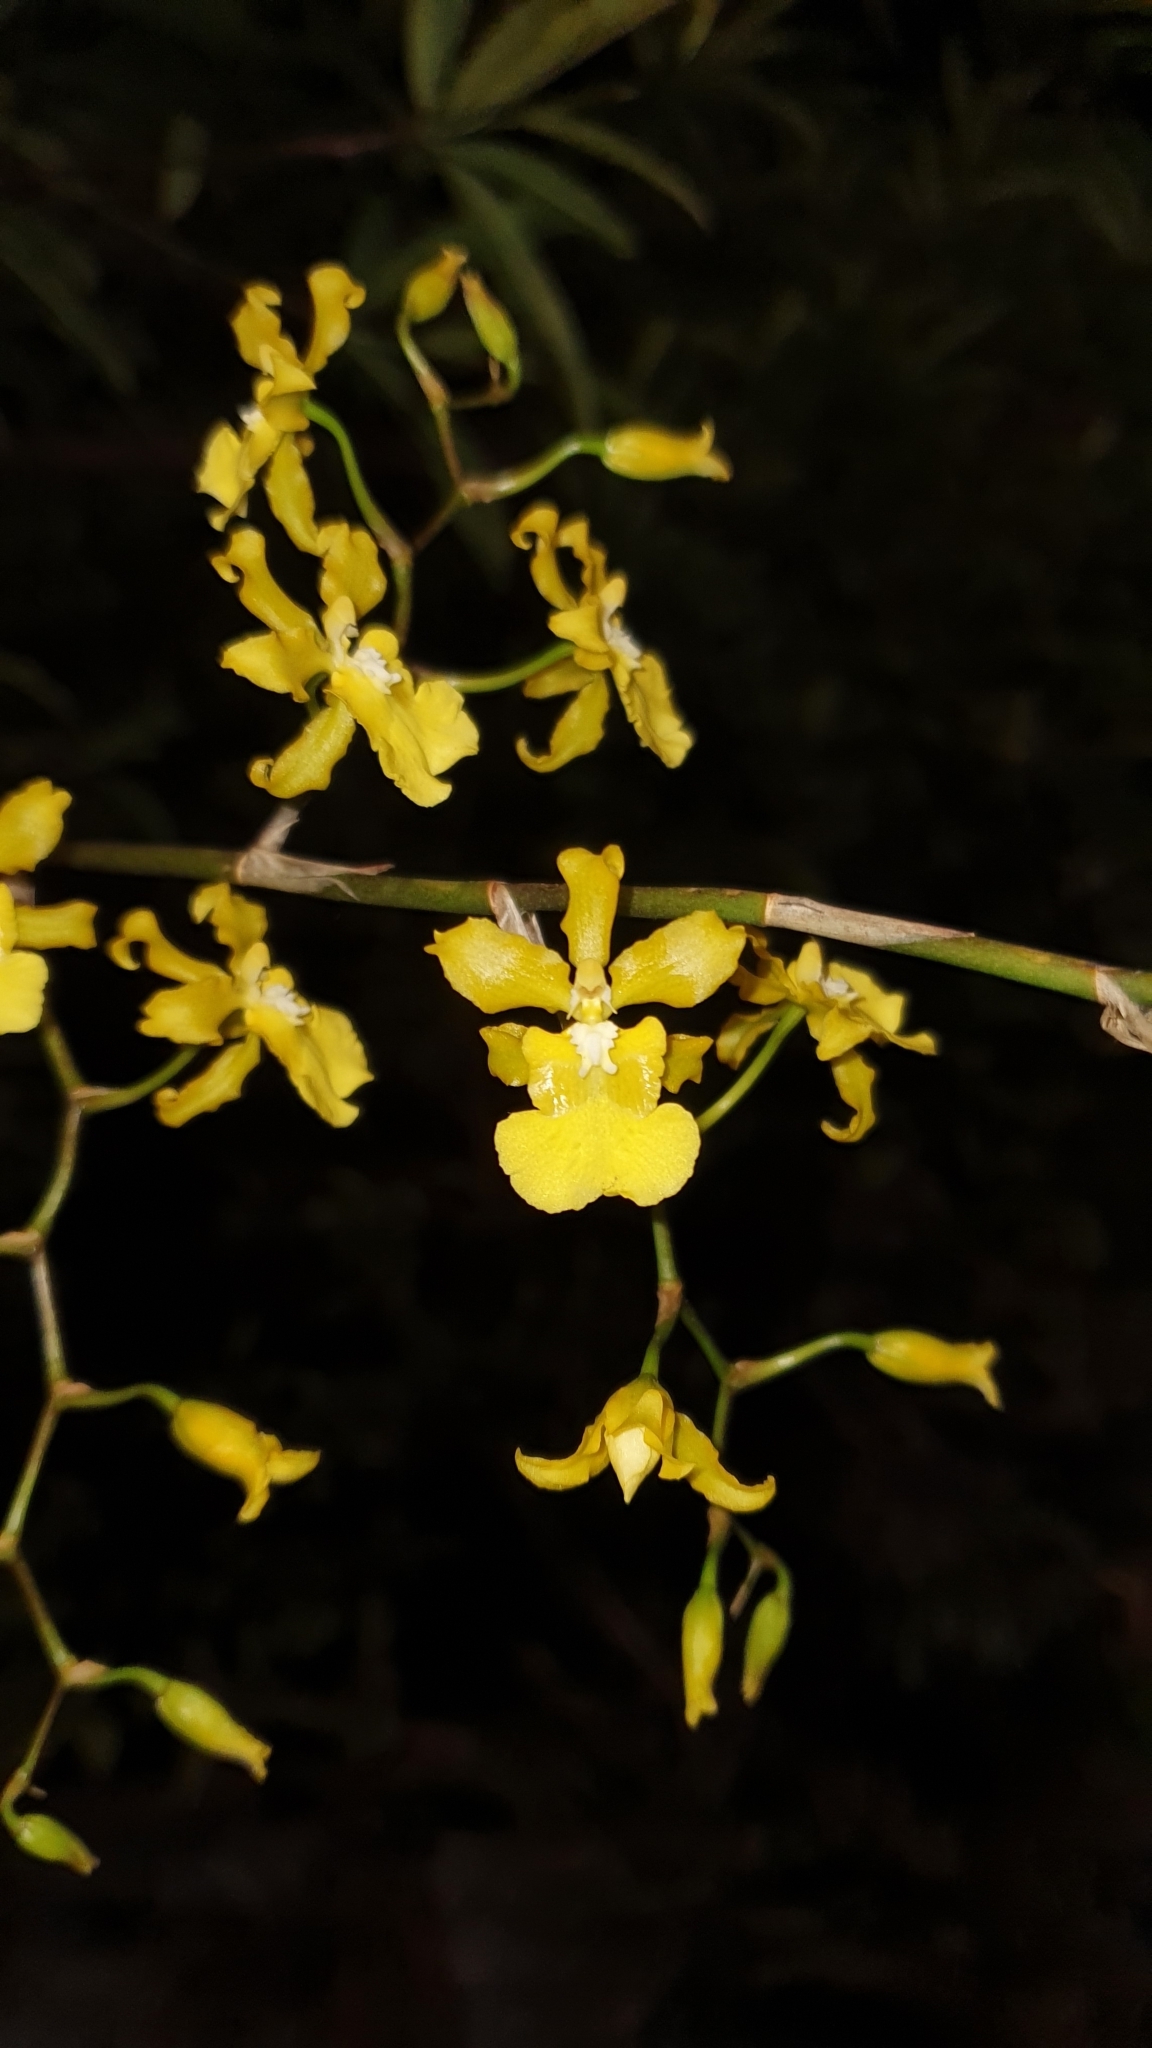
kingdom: Plantae
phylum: Tracheophyta
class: Liliopsida
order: Asparagales
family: Orchidaceae
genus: Oncidium
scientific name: Oncidium sphacelatum
